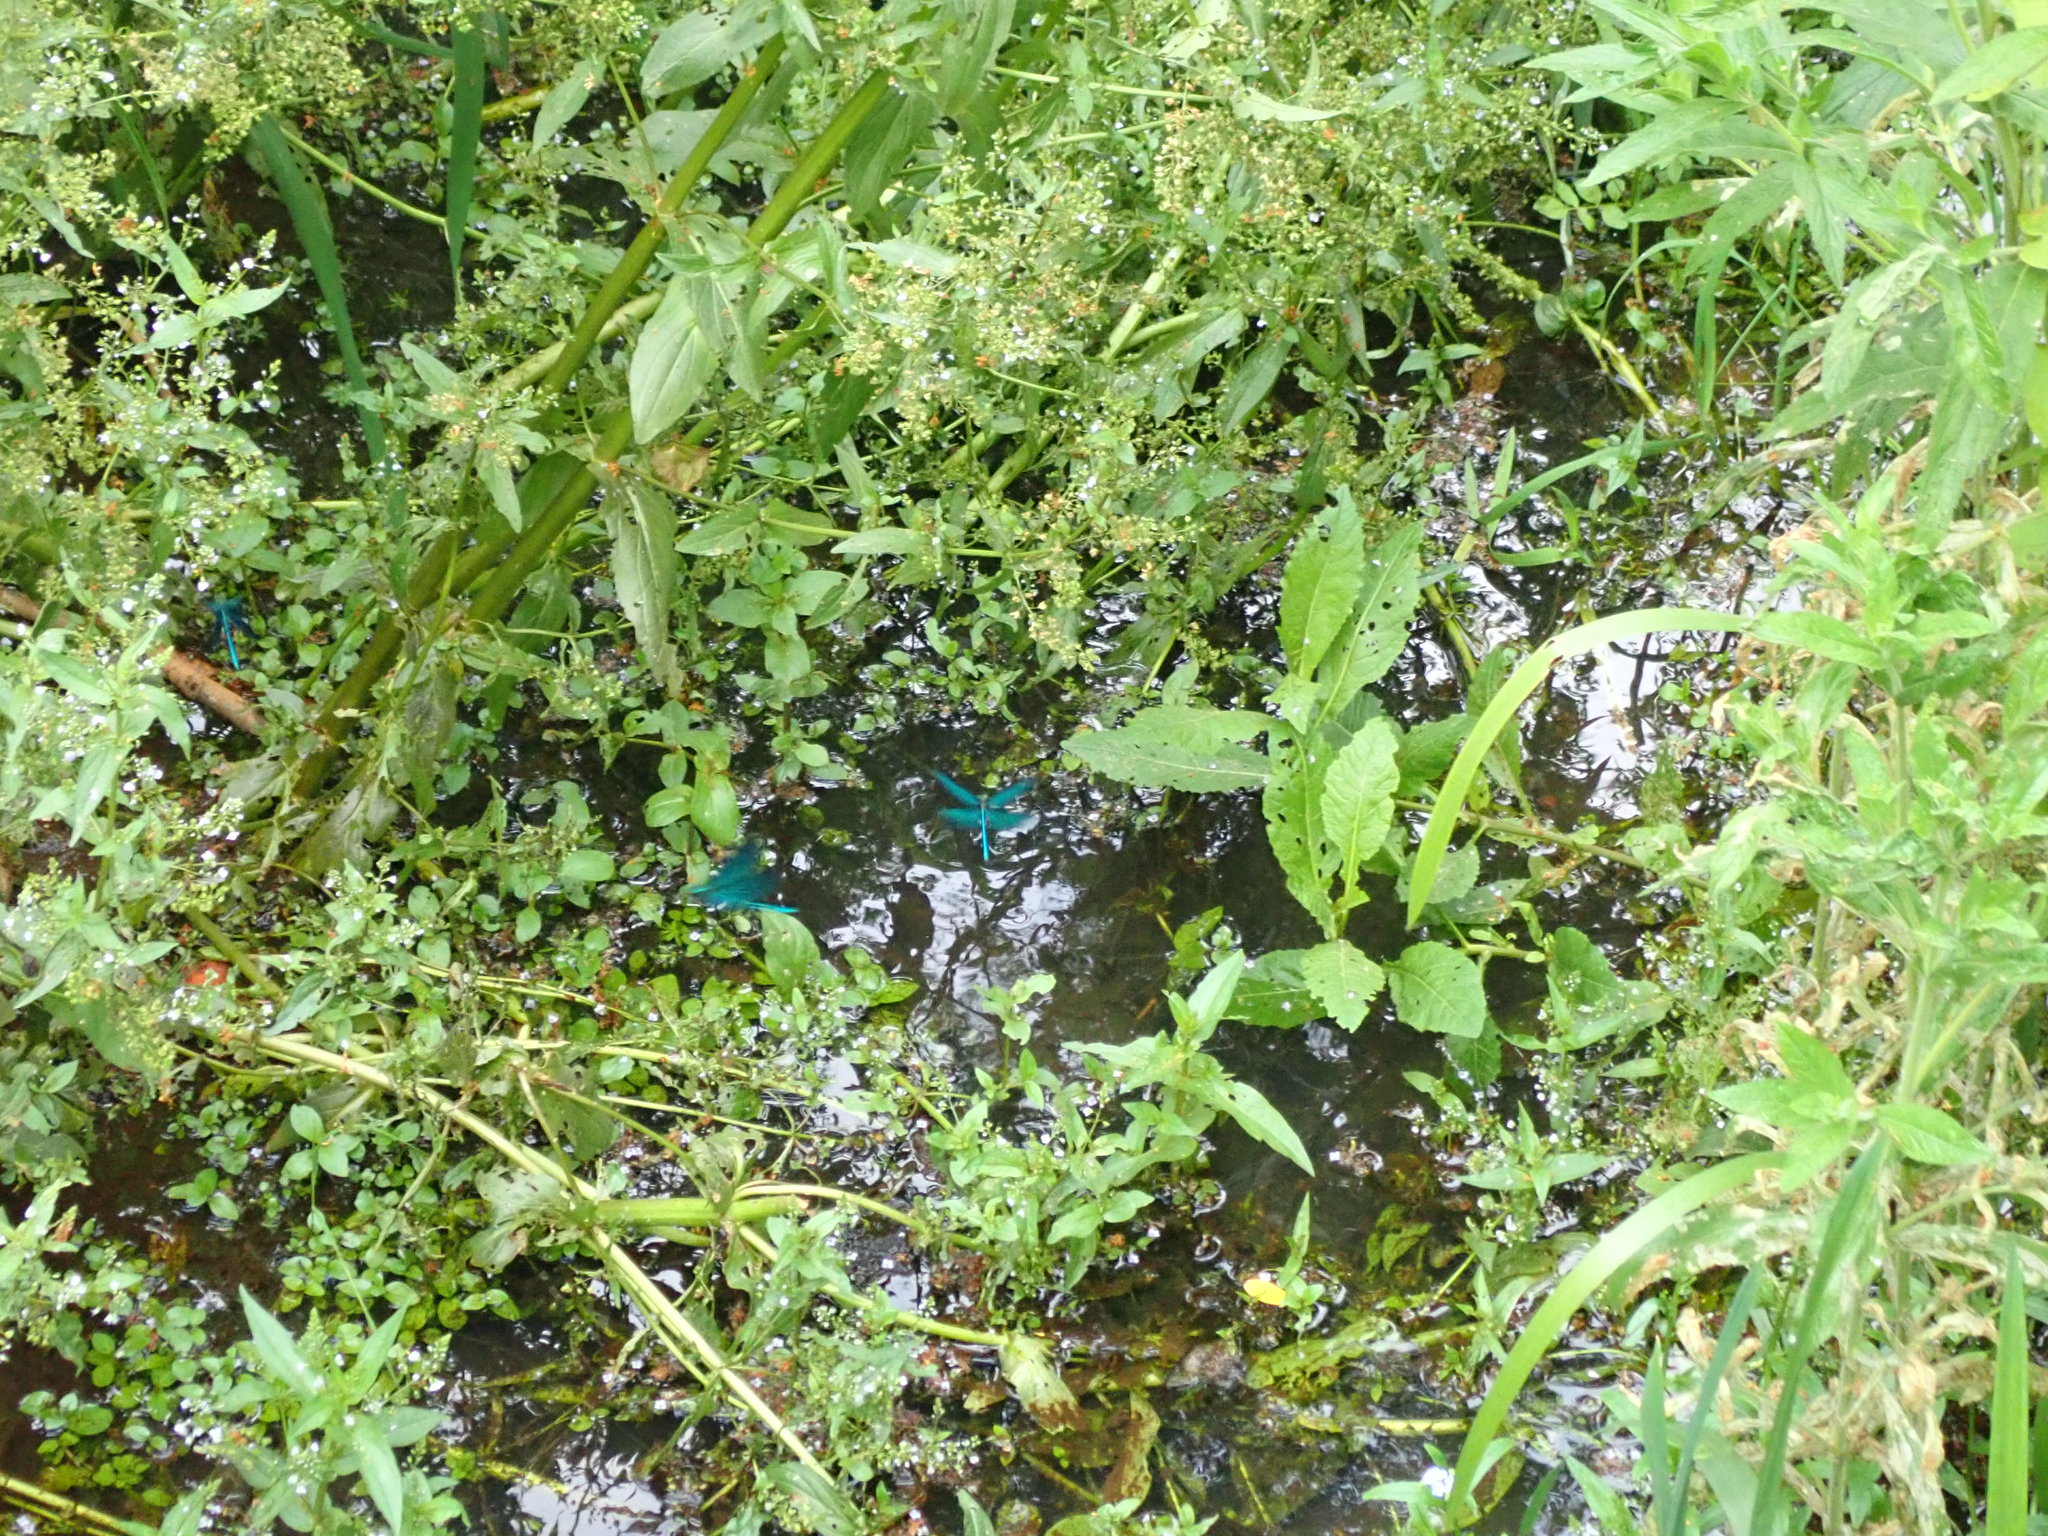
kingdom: Animalia
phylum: Arthropoda
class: Insecta
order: Odonata
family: Calopterygidae
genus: Calopteryx
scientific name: Calopteryx virgo
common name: Beautiful demoiselle
